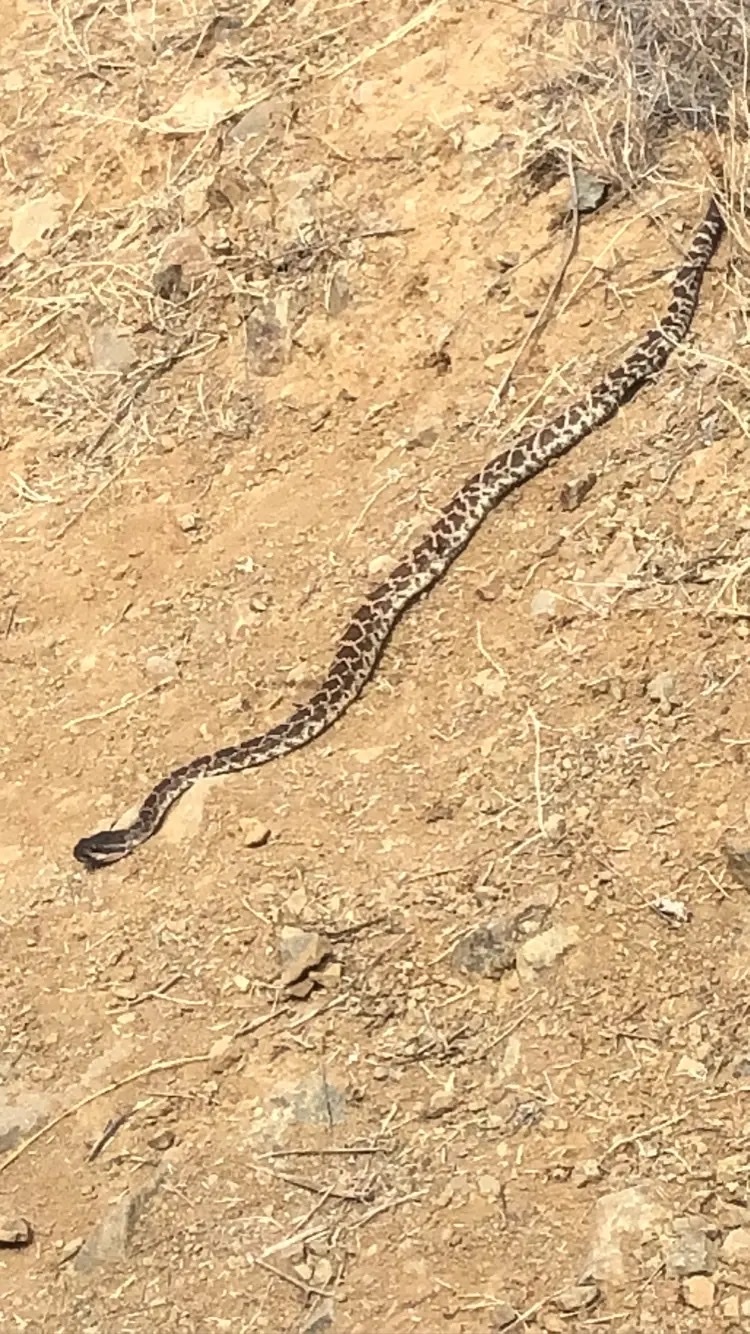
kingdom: Animalia
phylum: Chordata
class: Squamata
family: Viperidae
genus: Crotalus
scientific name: Crotalus oreganus
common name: Abyssus
